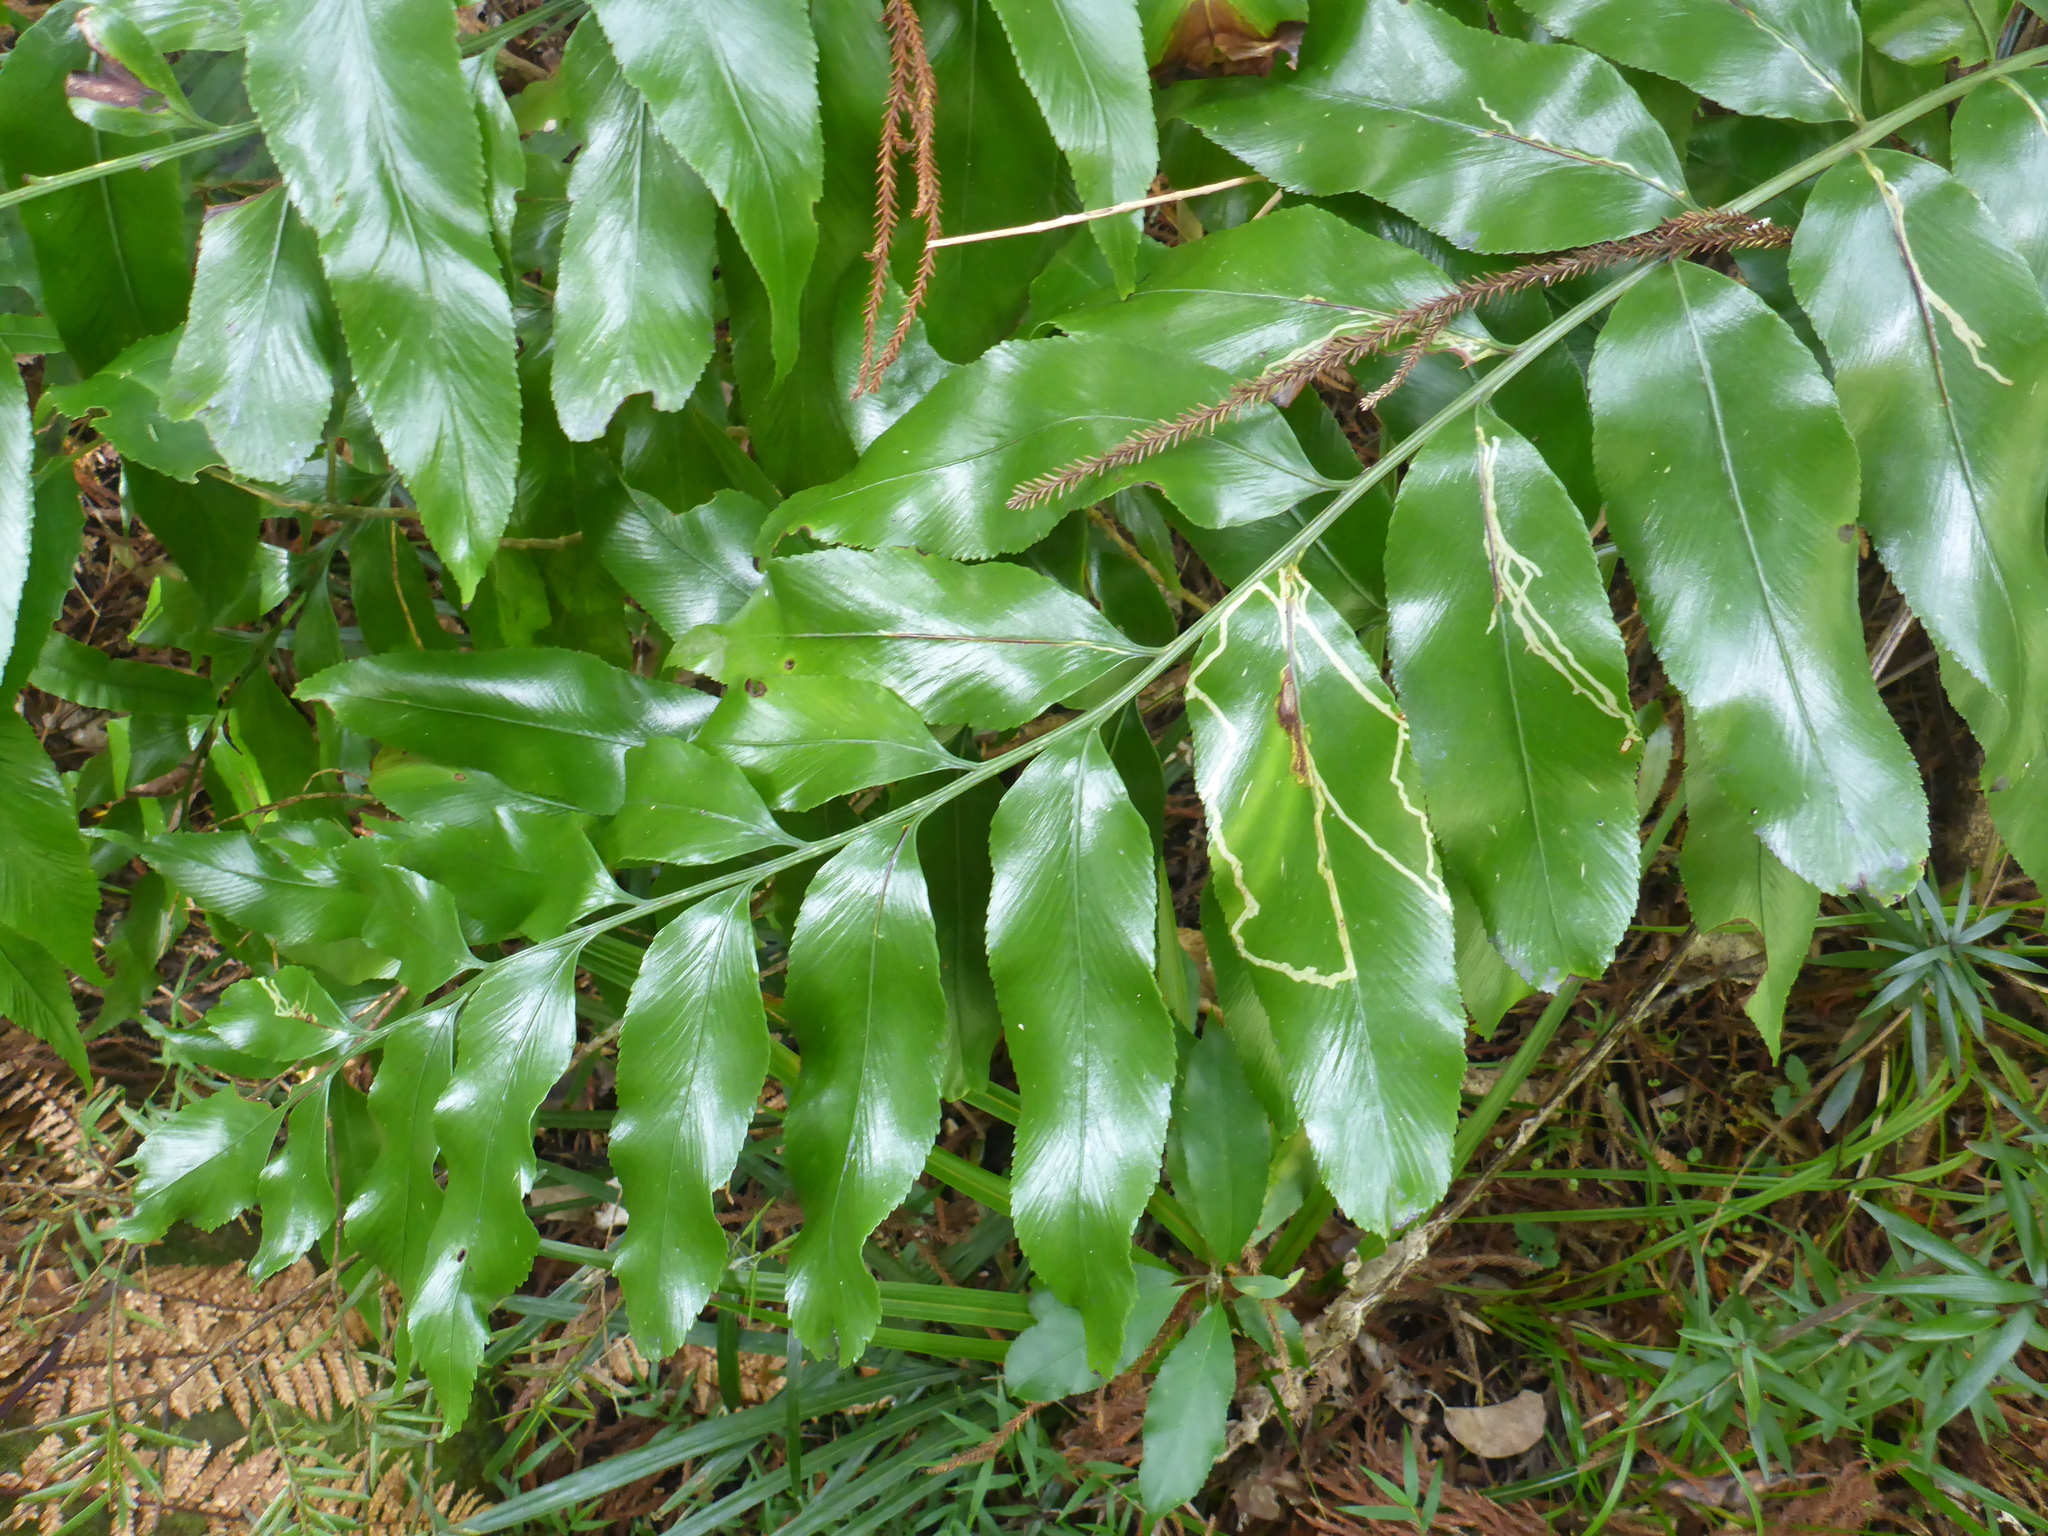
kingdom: Plantae
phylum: Tracheophyta
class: Polypodiopsida
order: Polypodiales
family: Aspleniaceae
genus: Asplenium
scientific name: Asplenium oblongifolium
